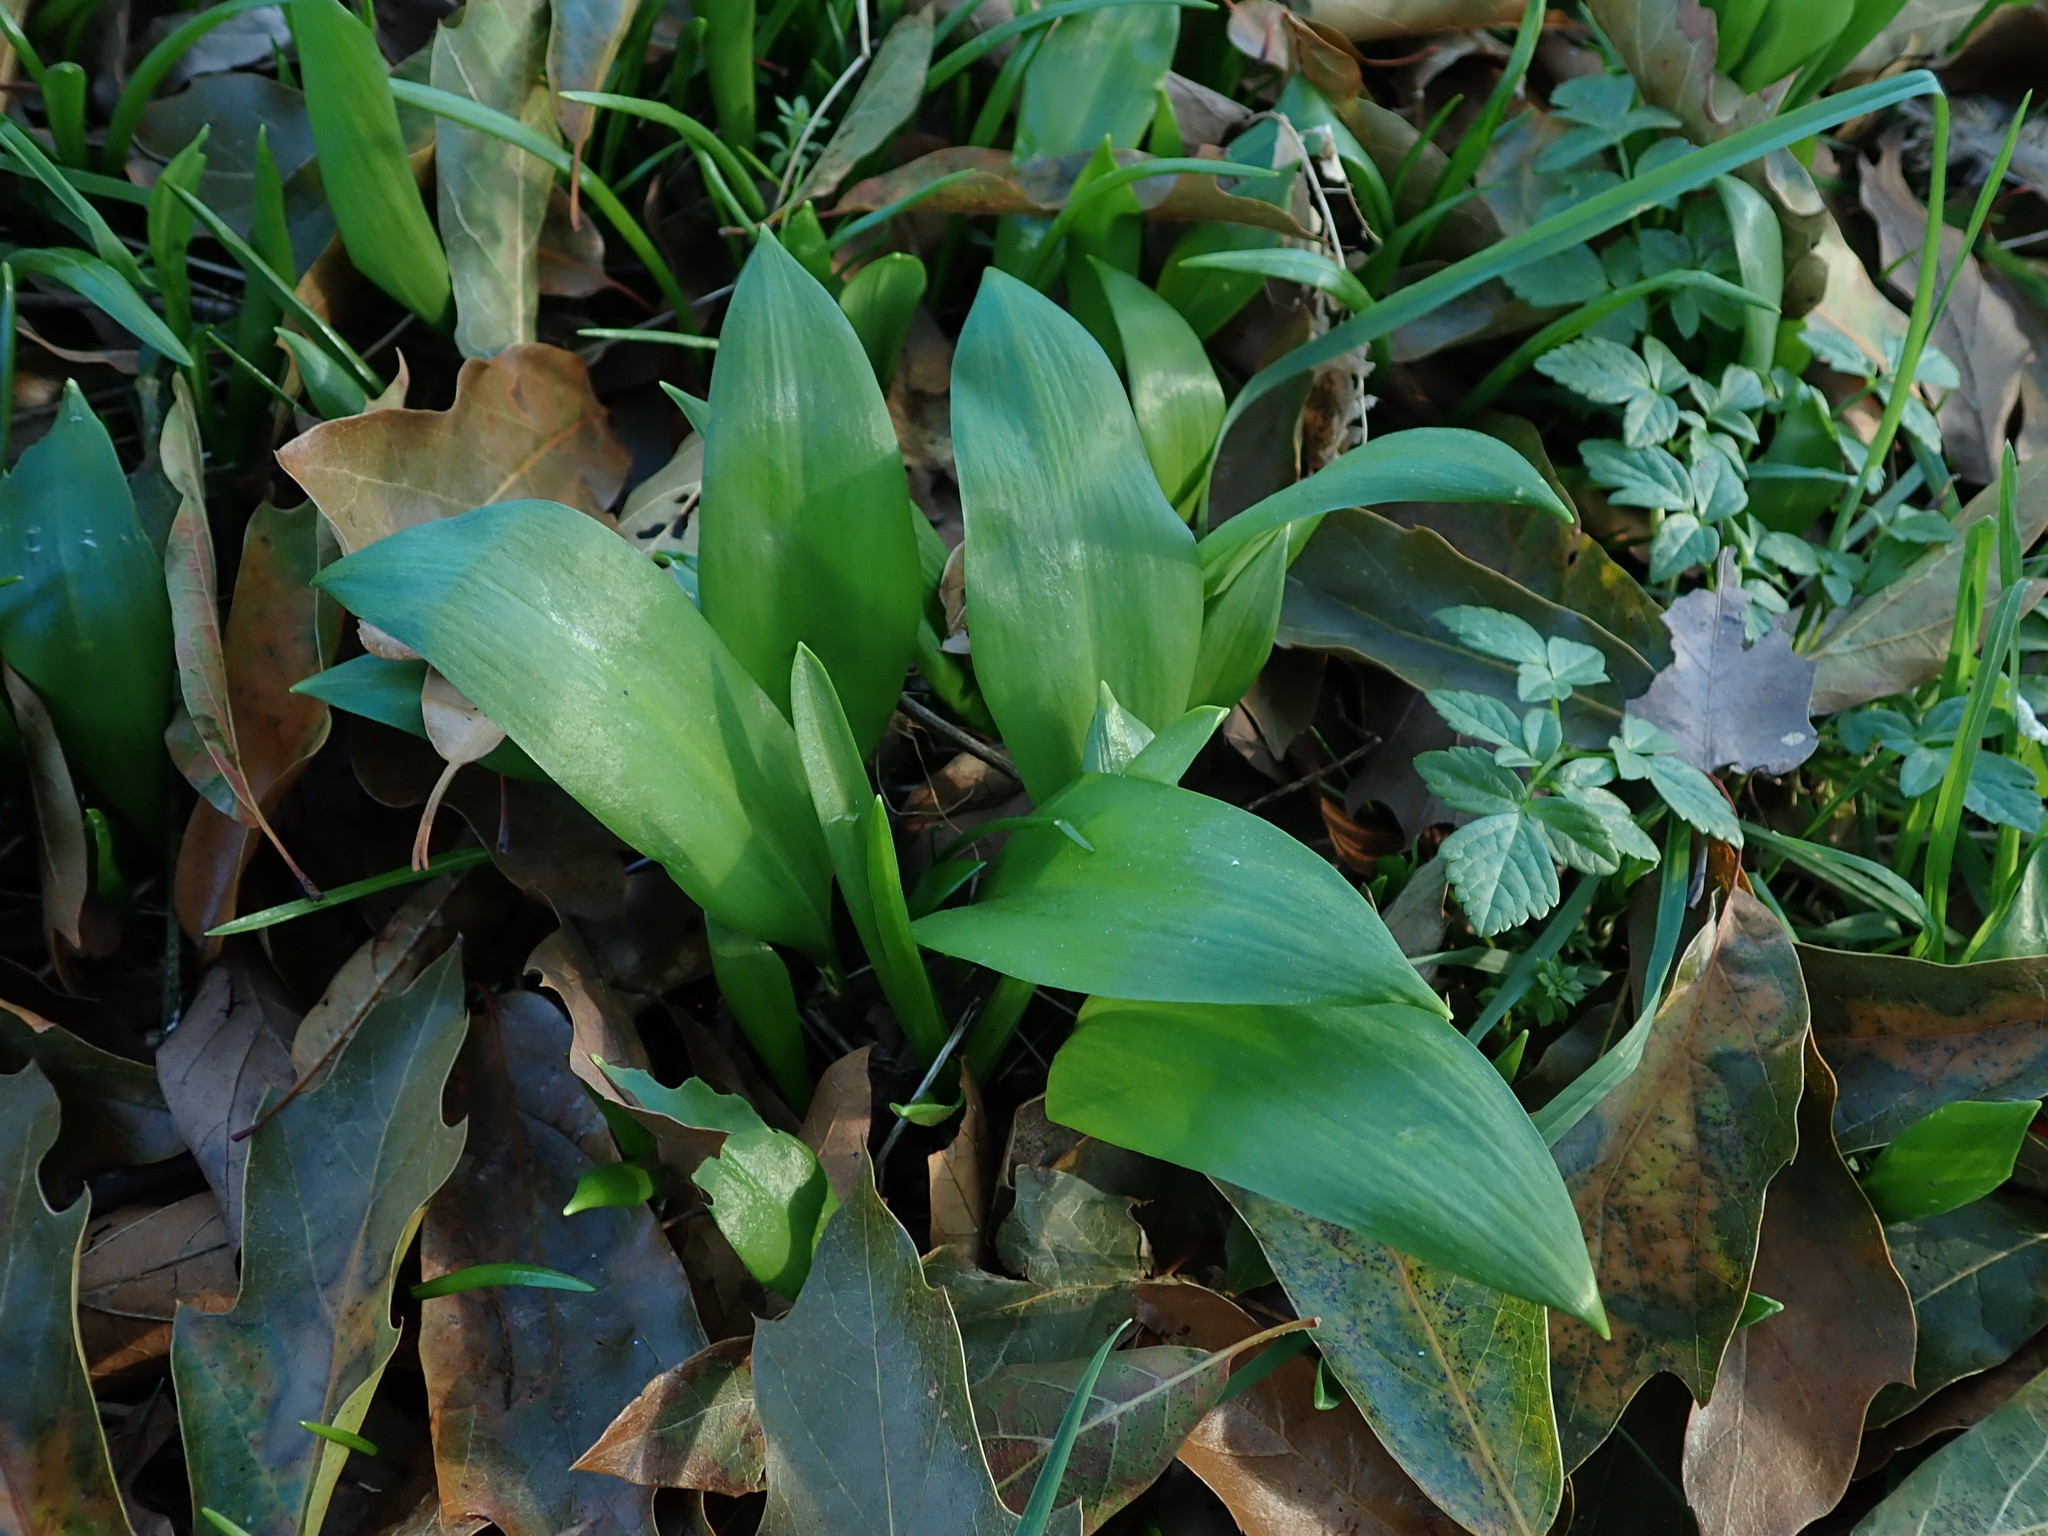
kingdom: Plantae
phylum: Tracheophyta
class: Liliopsida
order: Asparagales
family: Amaryllidaceae
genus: Allium
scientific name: Allium ursinum
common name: Ramsons
